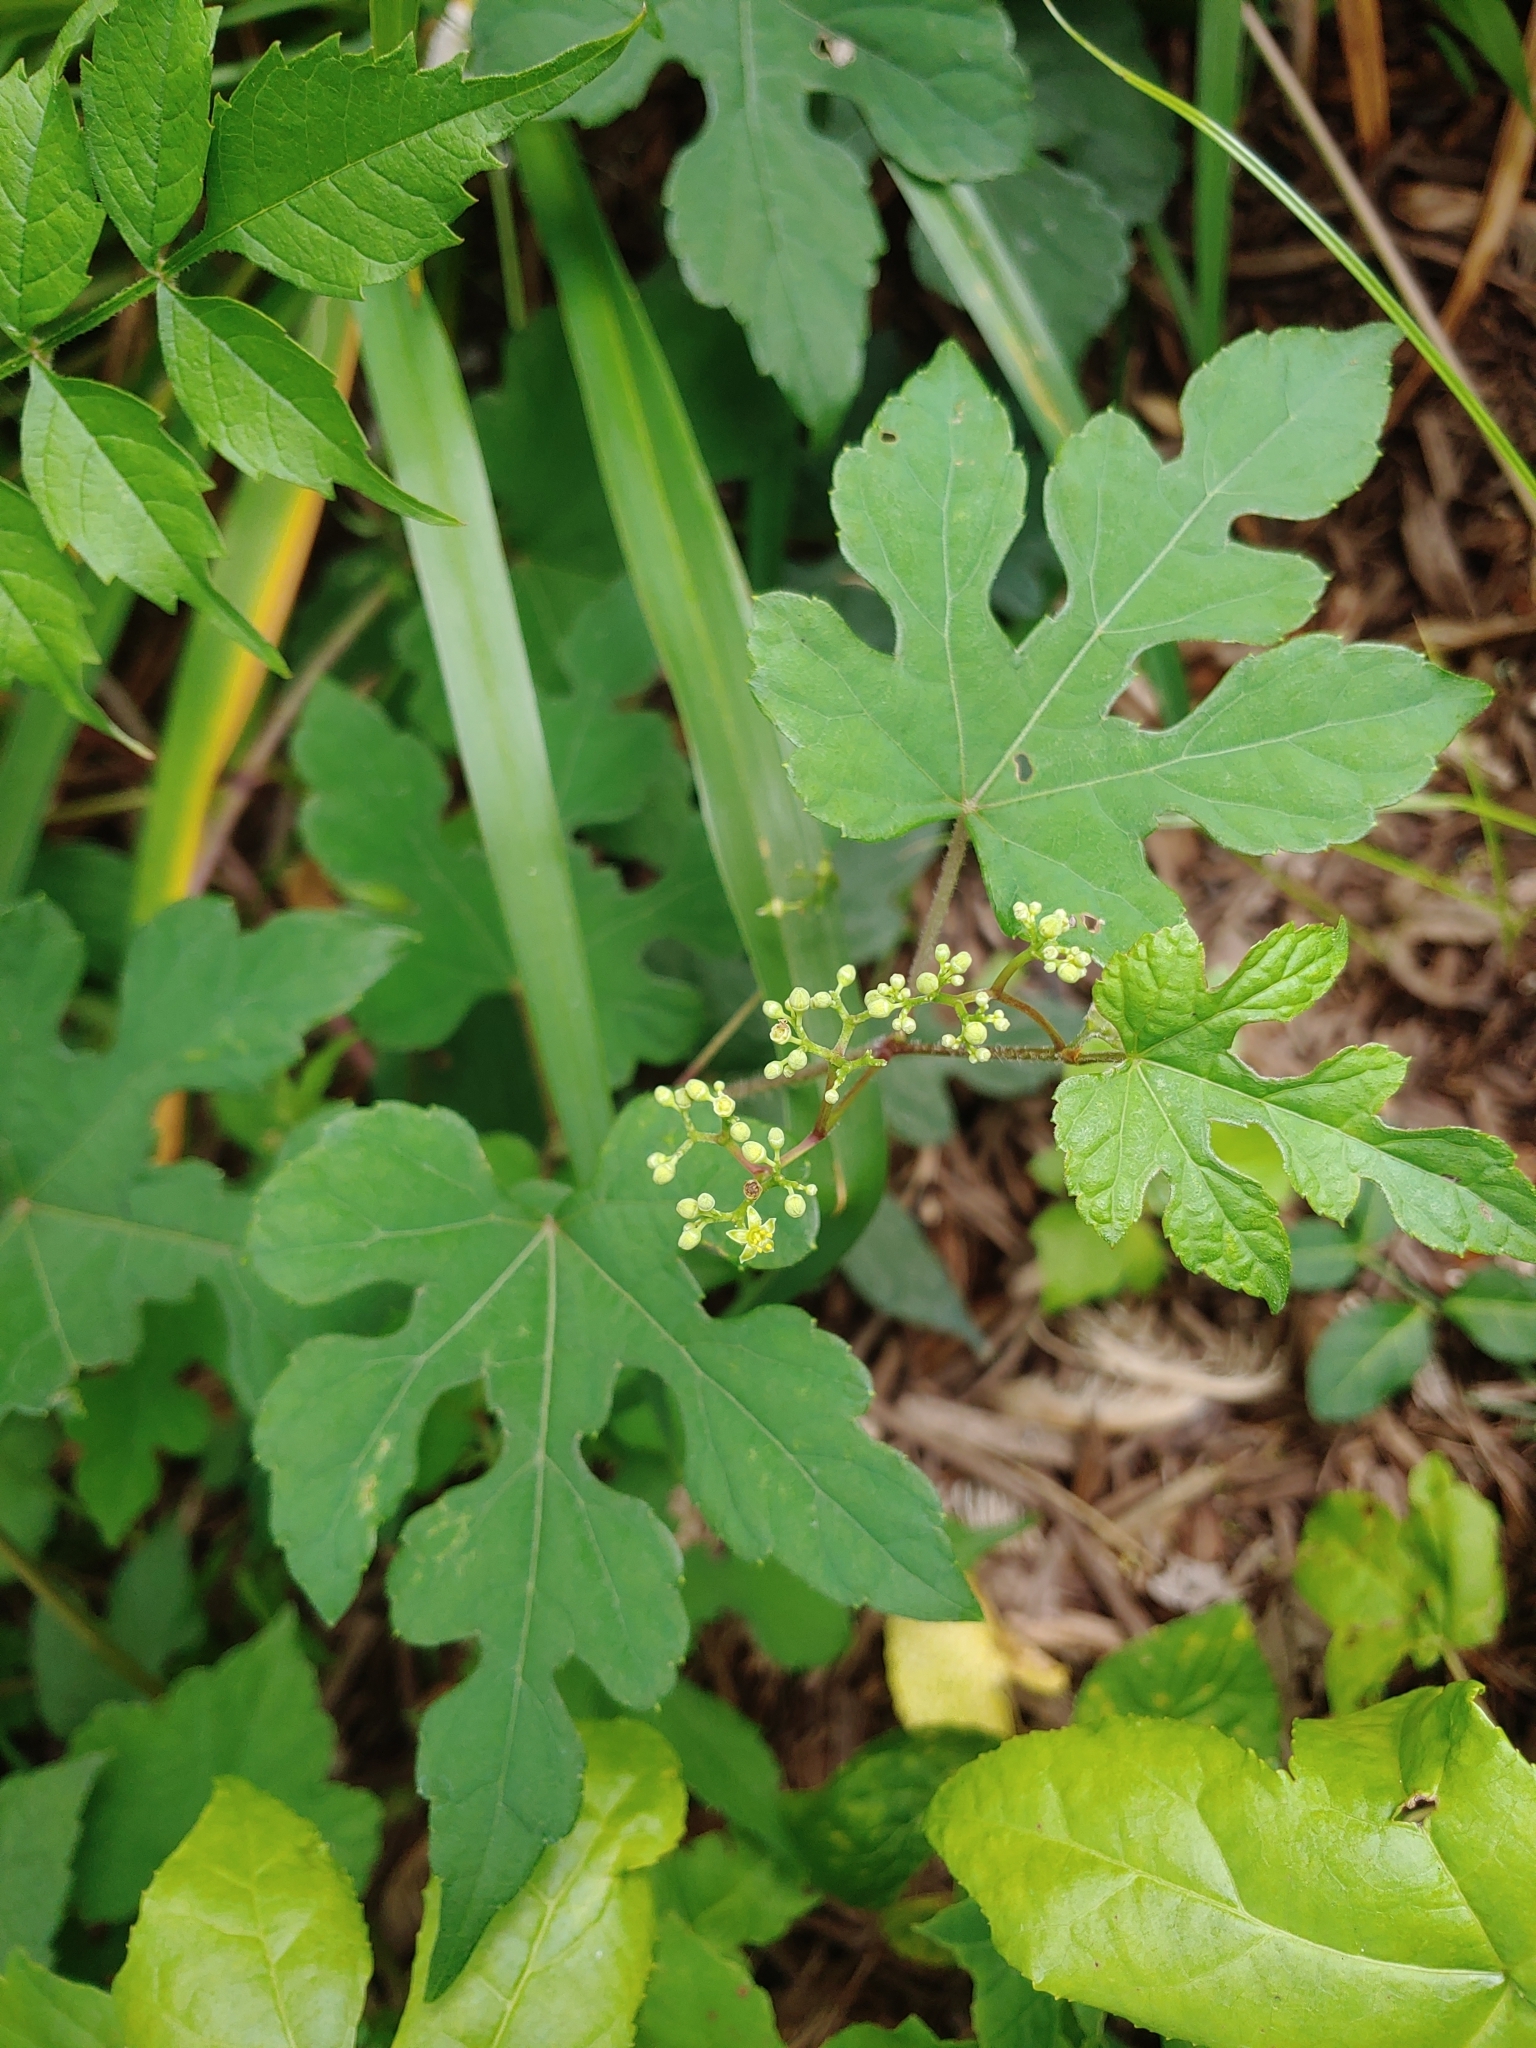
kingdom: Plantae
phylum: Tracheophyta
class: Magnoliopsida
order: Vitales
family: Vitaceae
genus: Ampelopsis
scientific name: Ampelopsis glandulosa
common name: Amur peppervine
